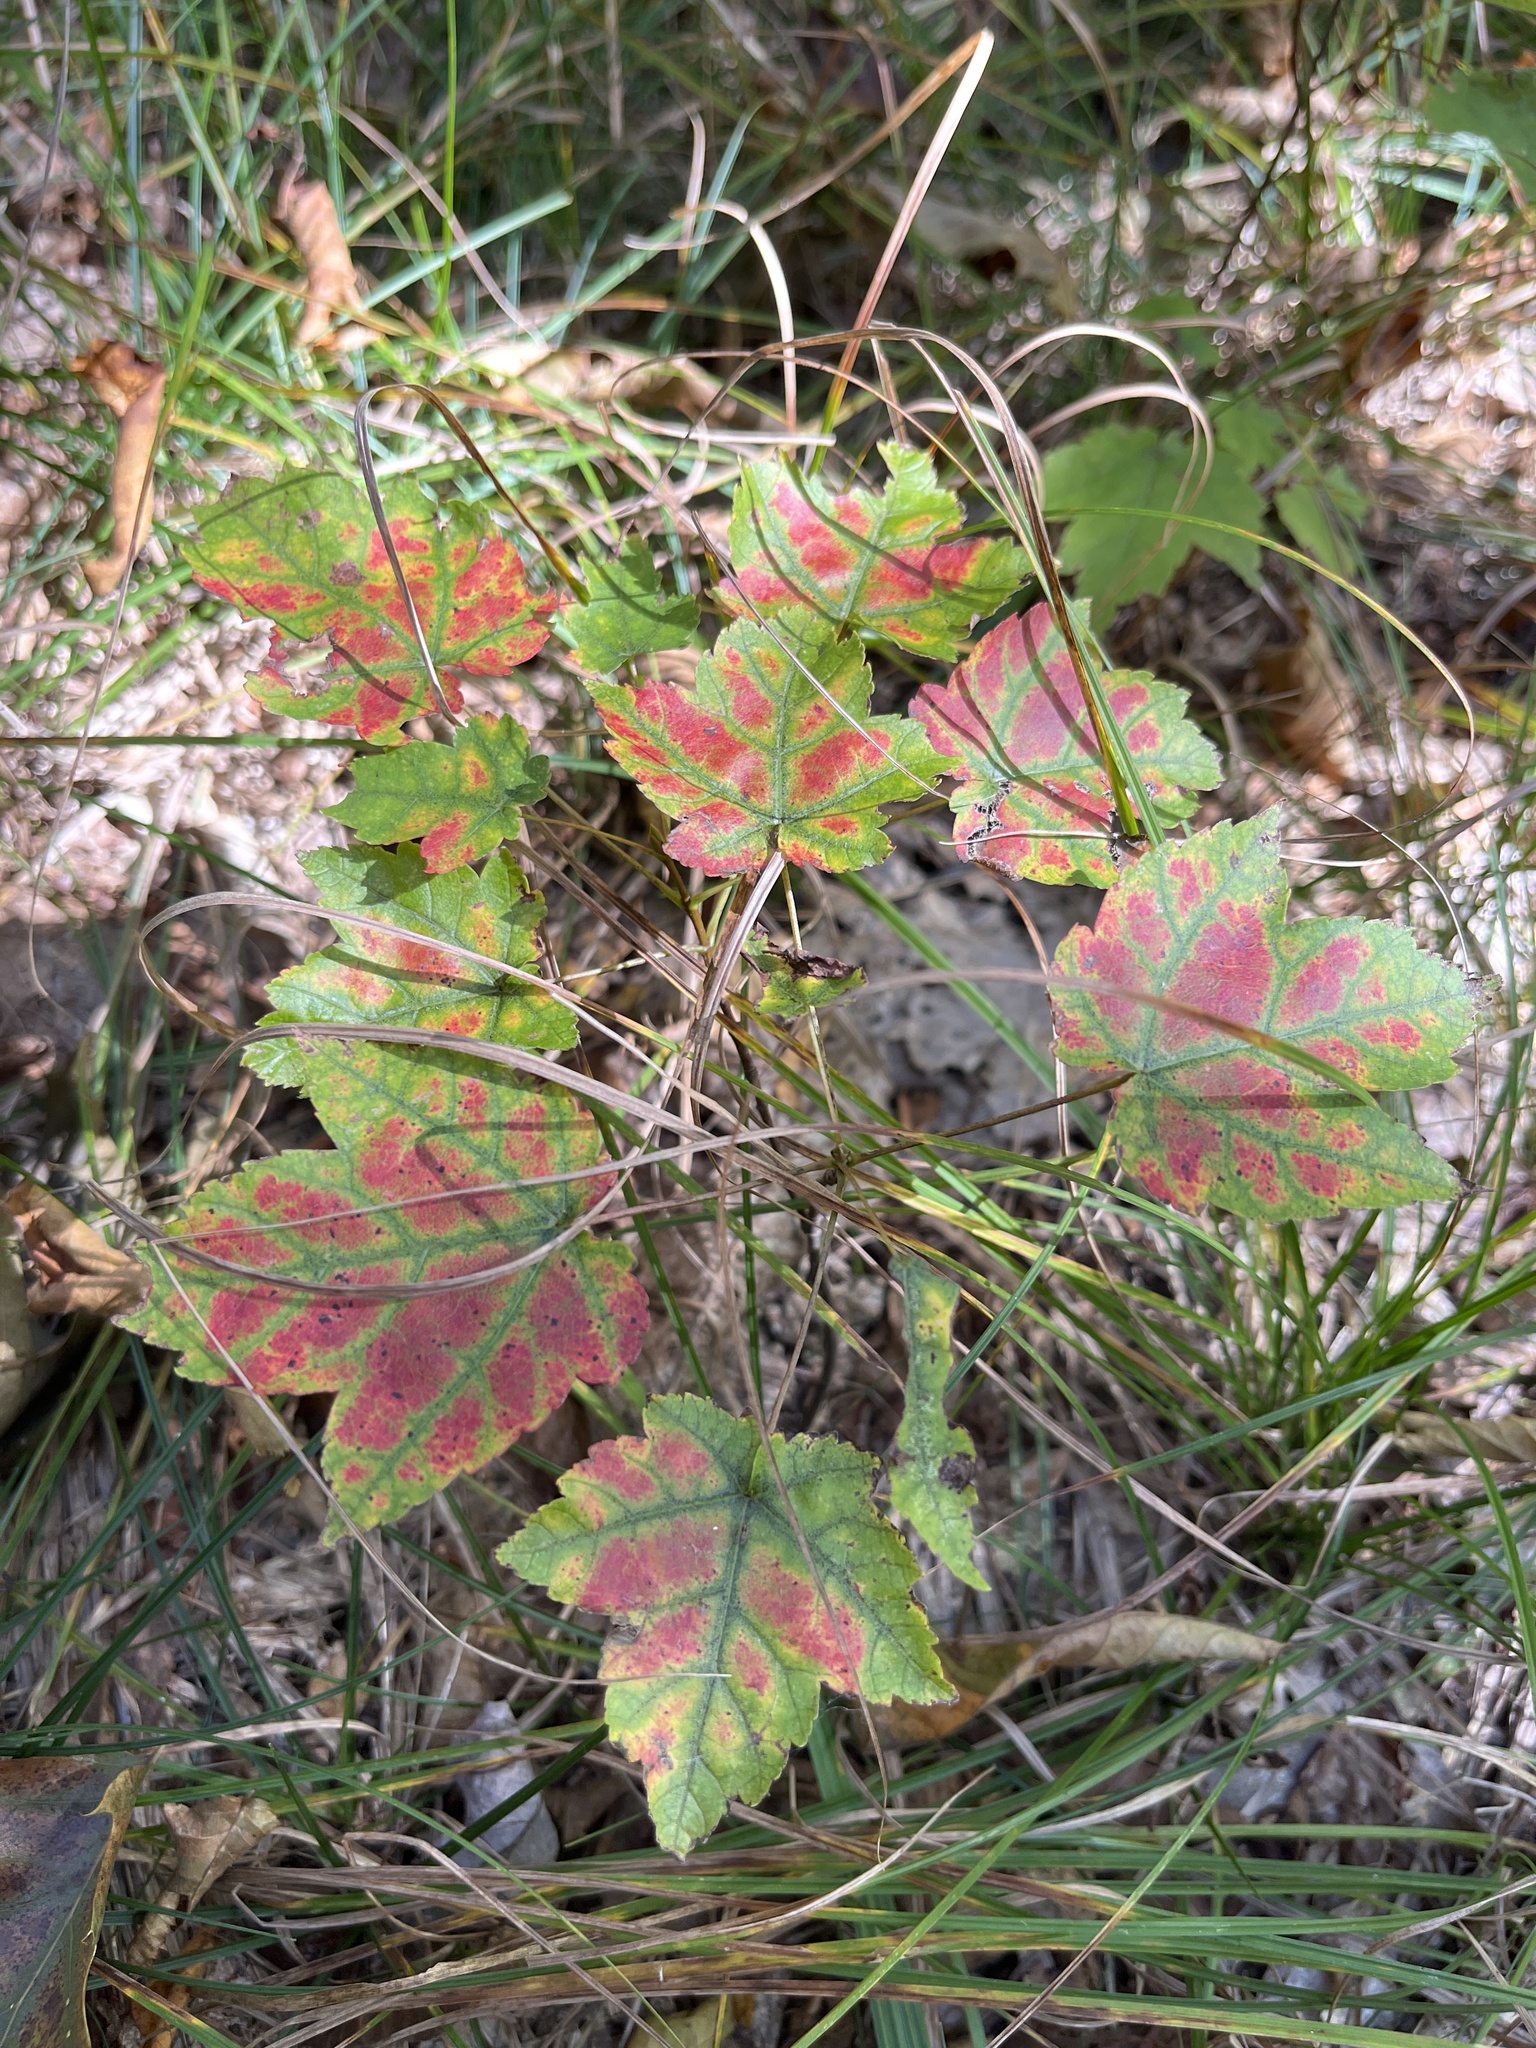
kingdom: Plantae
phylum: Tracheophyta
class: Magnoliopsida
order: Sapindales
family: Sapindaceae
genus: Acer
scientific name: Acer rubrum
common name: Red maple
